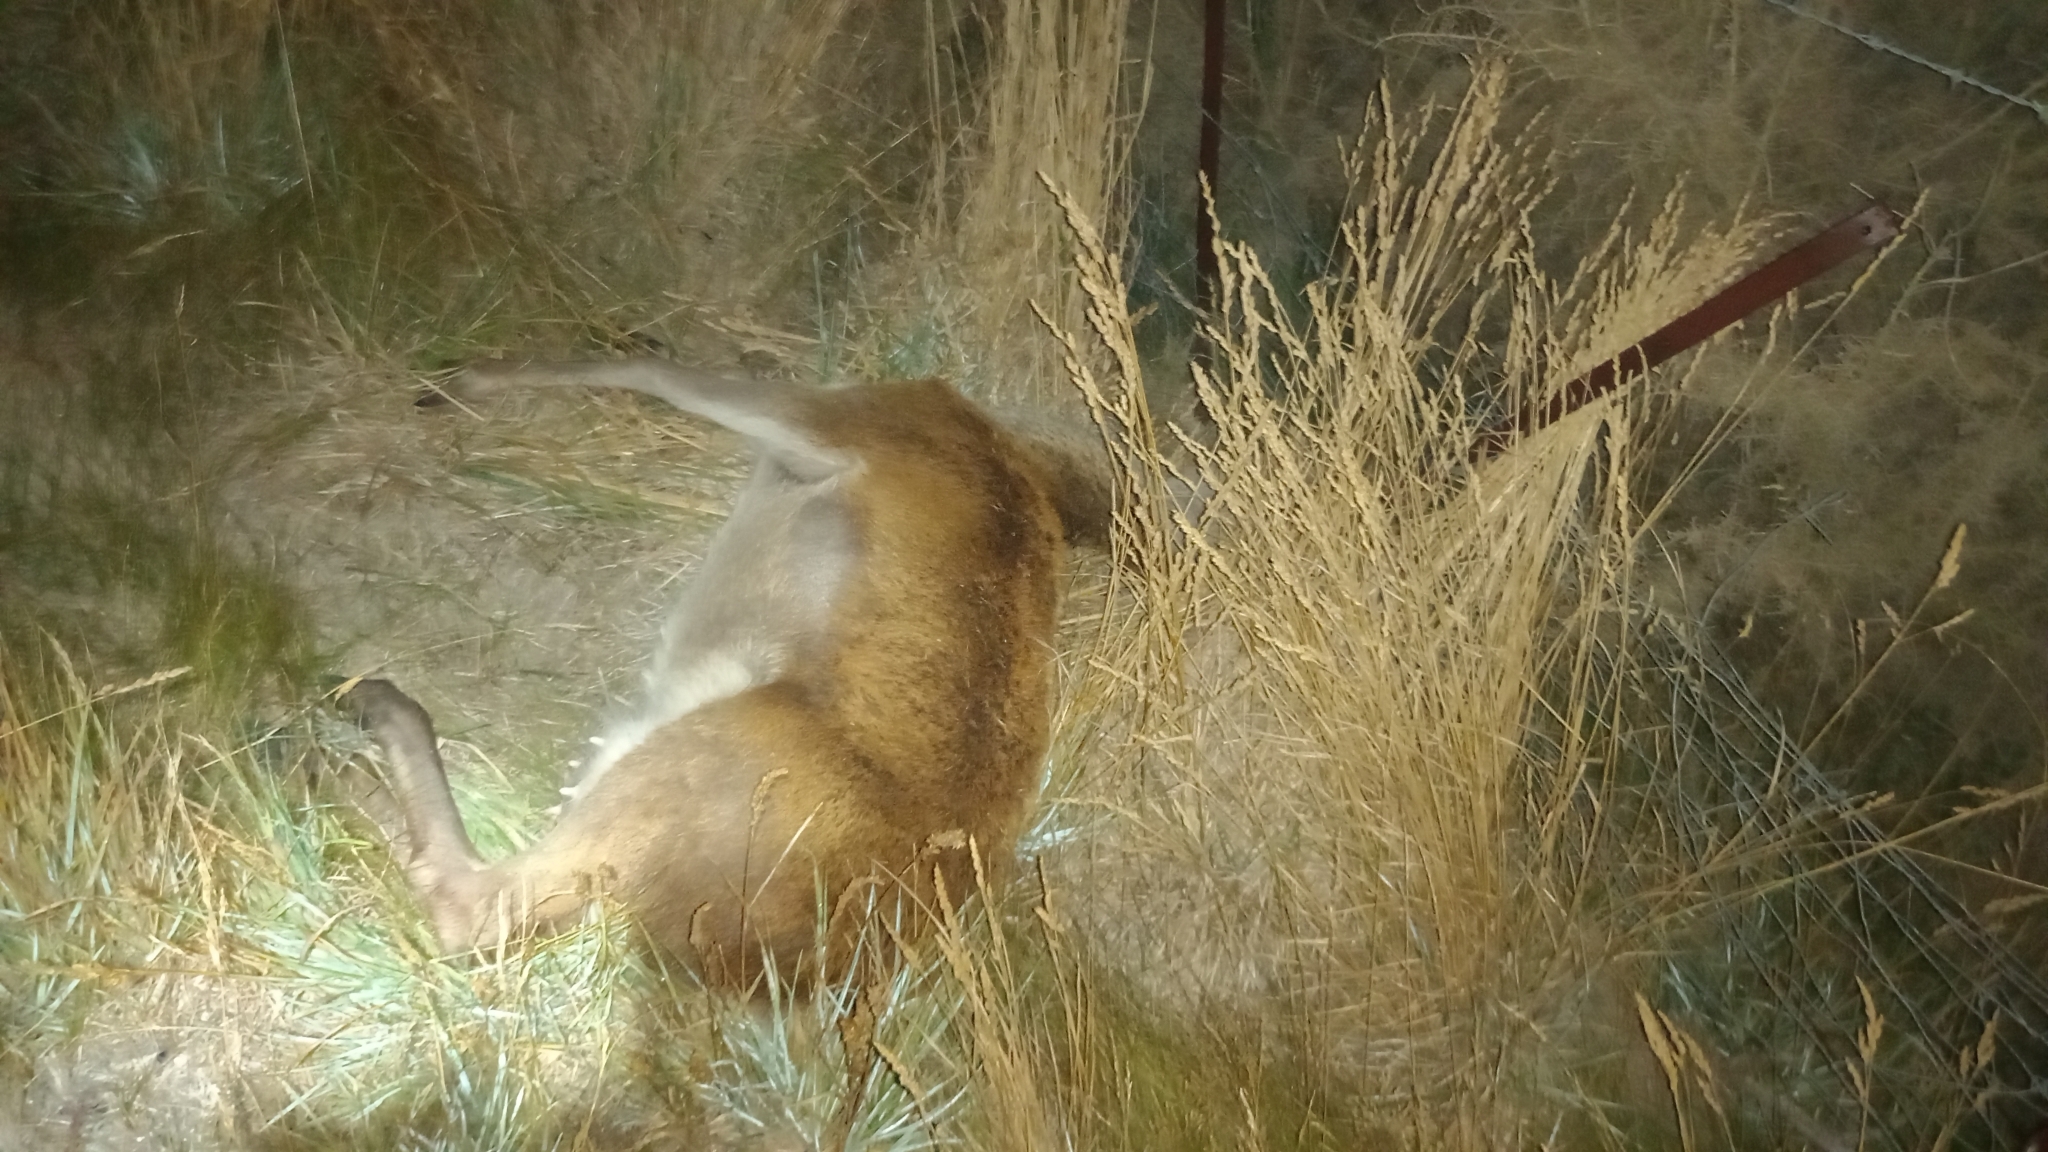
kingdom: Animalia
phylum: Chordata
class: Mammalia
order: Artiodactyla
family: Cervidae
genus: Cervus
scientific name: Cervus elaphus
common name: Red deer
